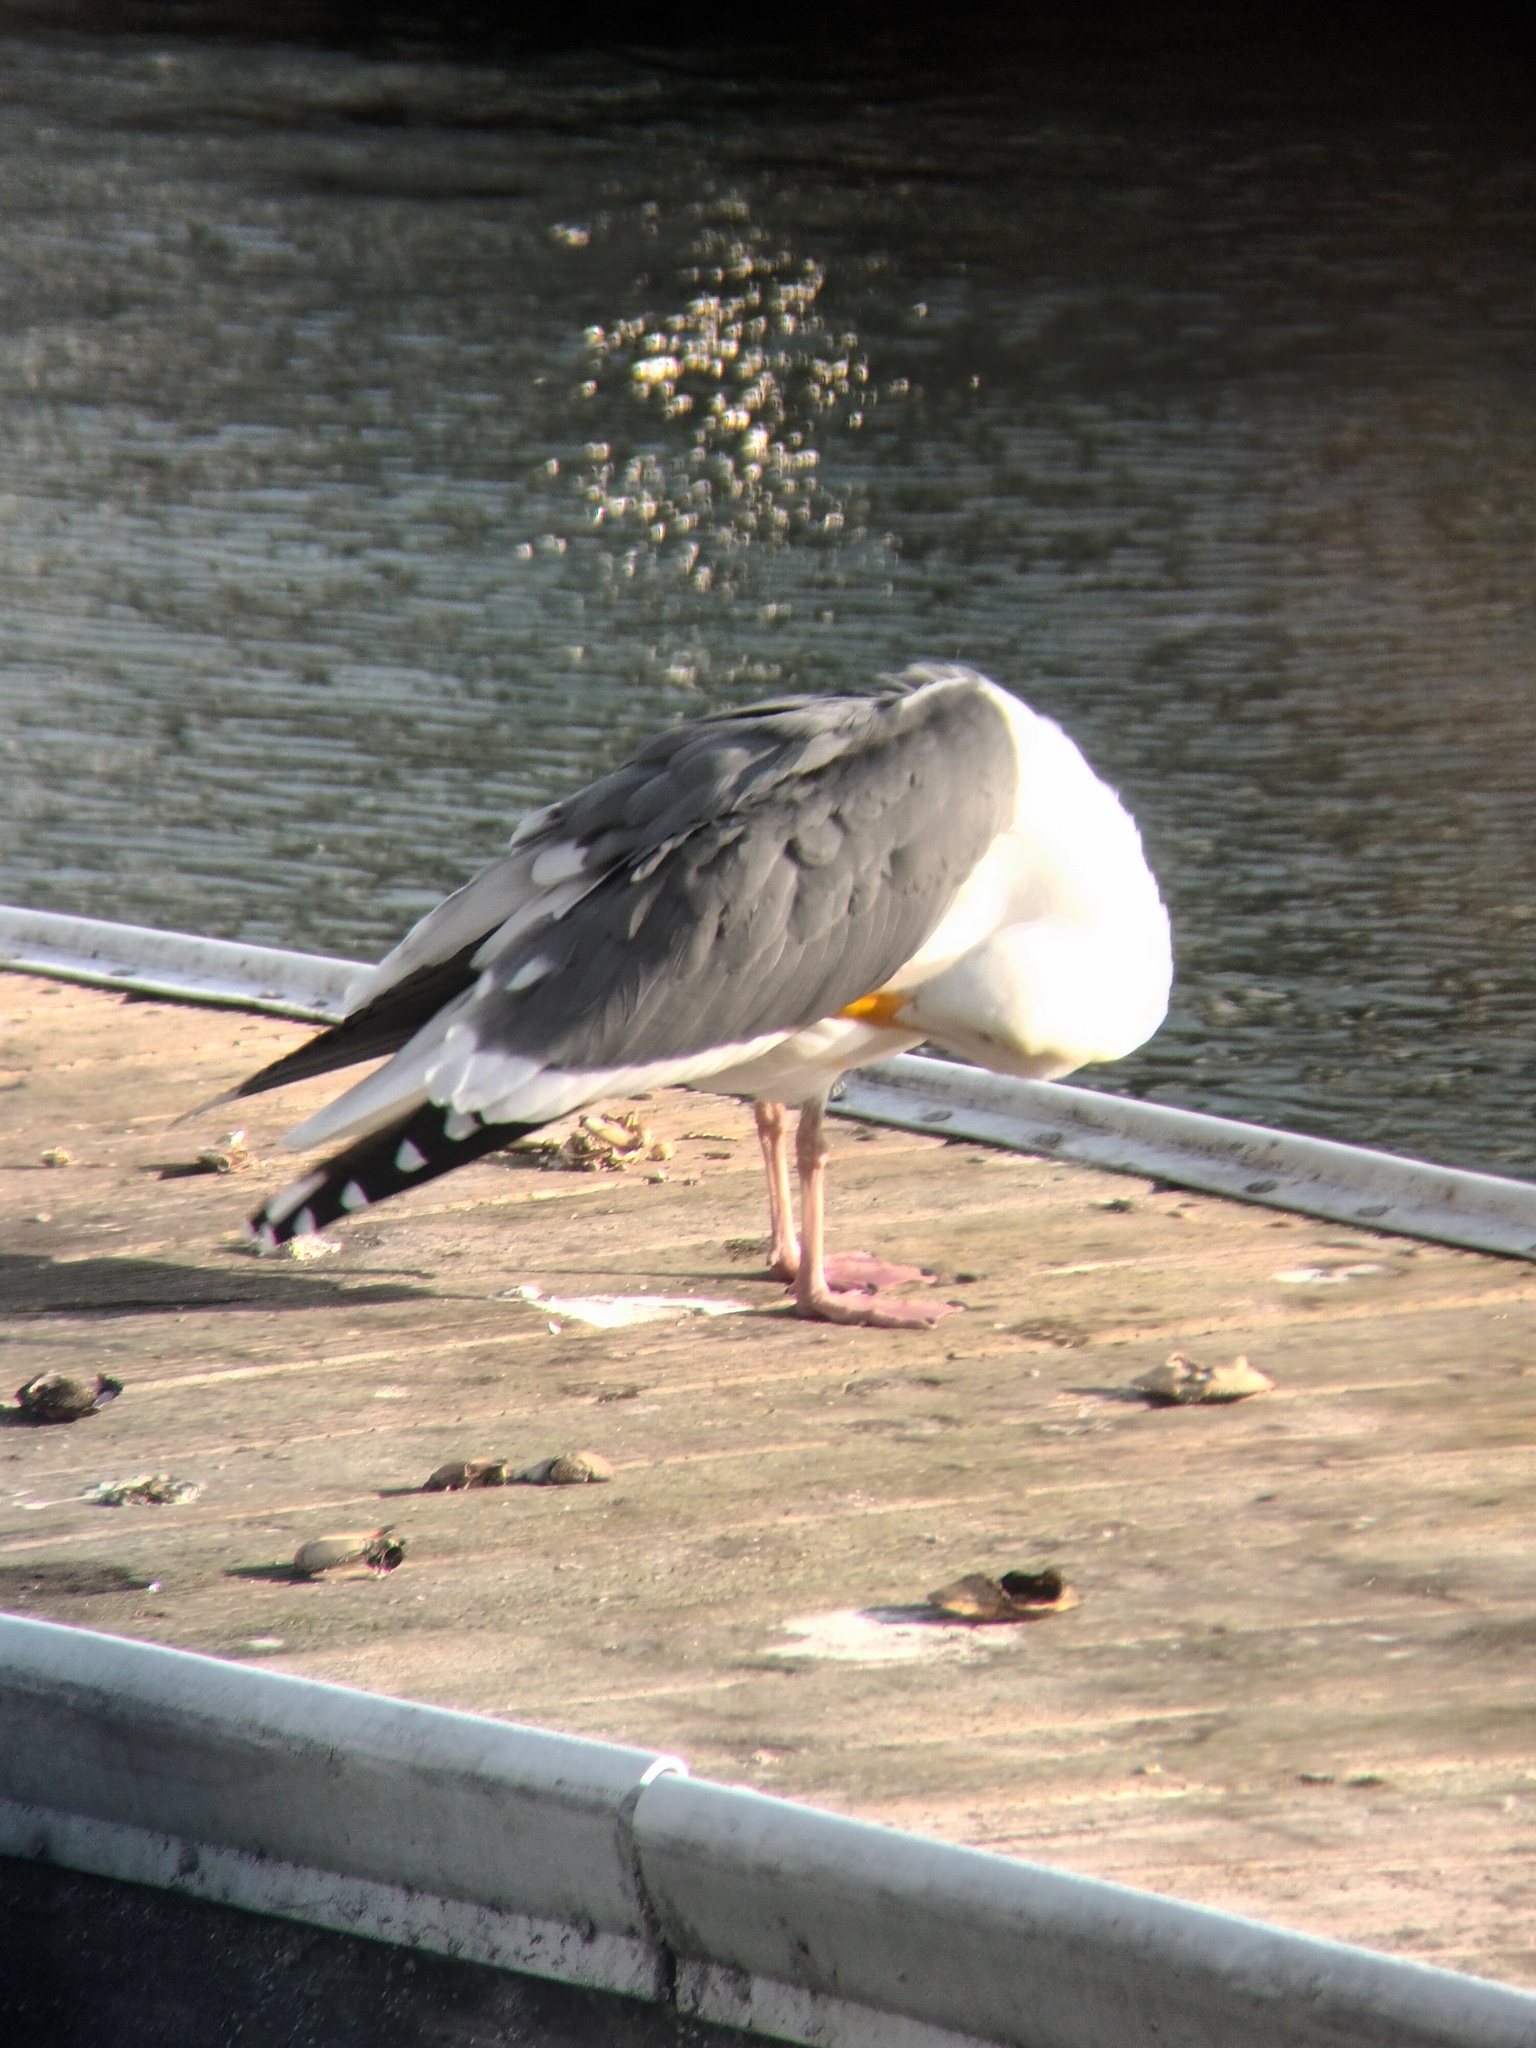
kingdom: Animalia
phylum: Chordata
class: Aves
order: Charadriiformes
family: Laridae
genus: Larus
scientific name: Larus occidentalis
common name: Western gull
